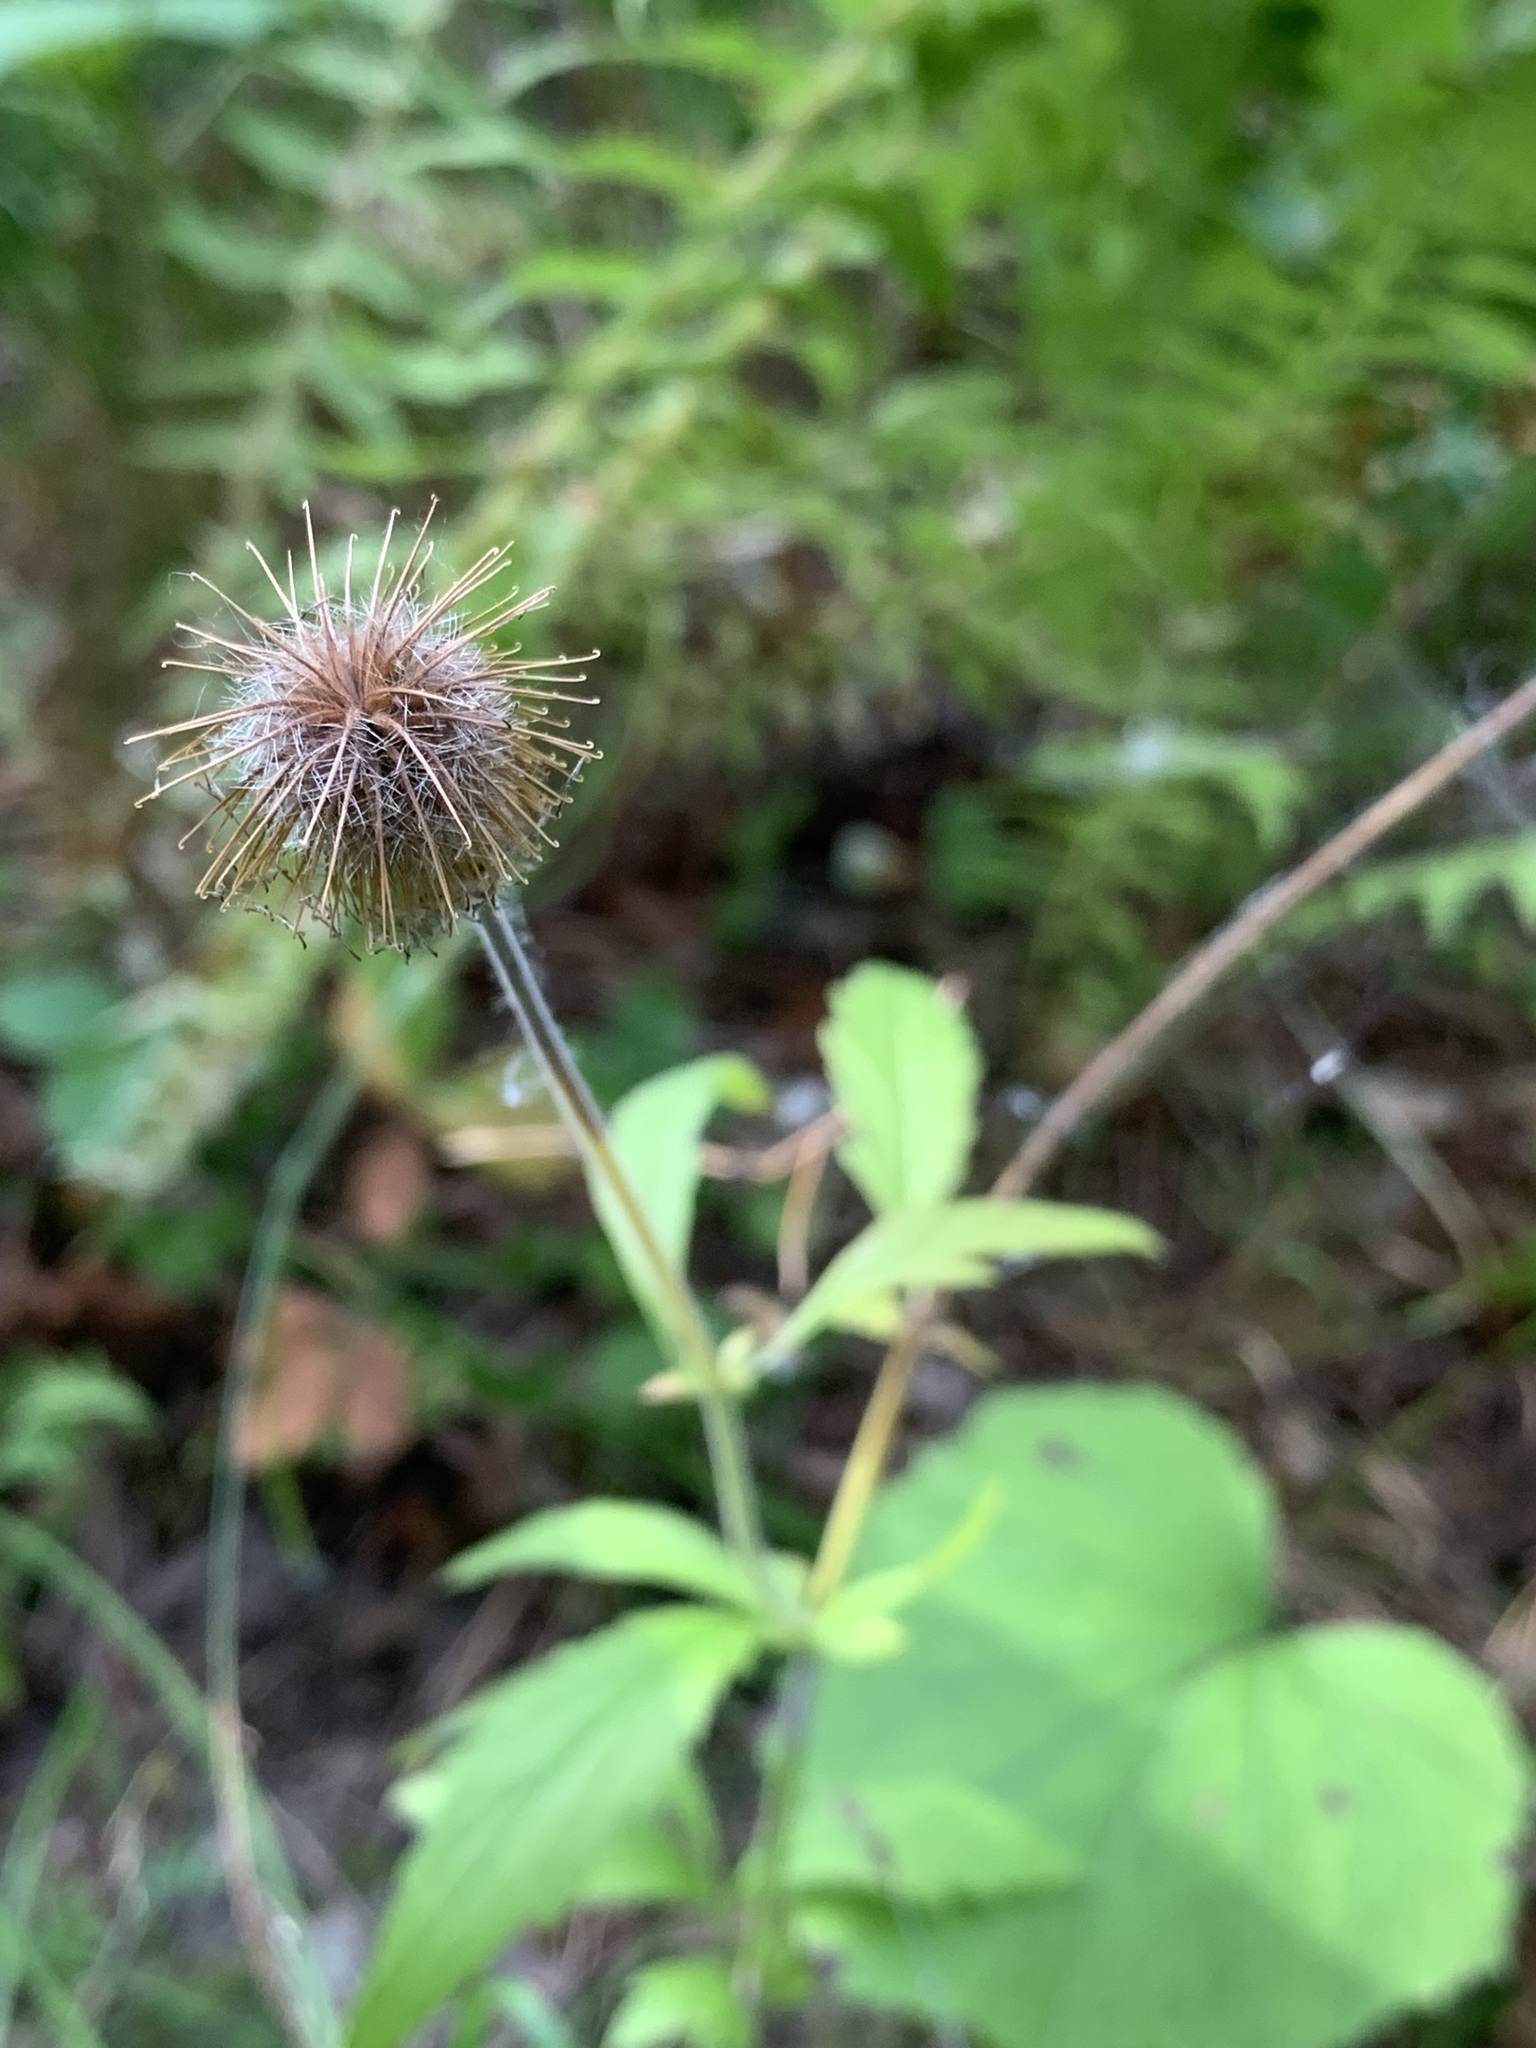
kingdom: Plantae
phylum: Tracheophyta
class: Magnoliopsida
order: Rosales
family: Rosaceae
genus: Geum
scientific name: Geum aleppicum
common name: Yellow avens
